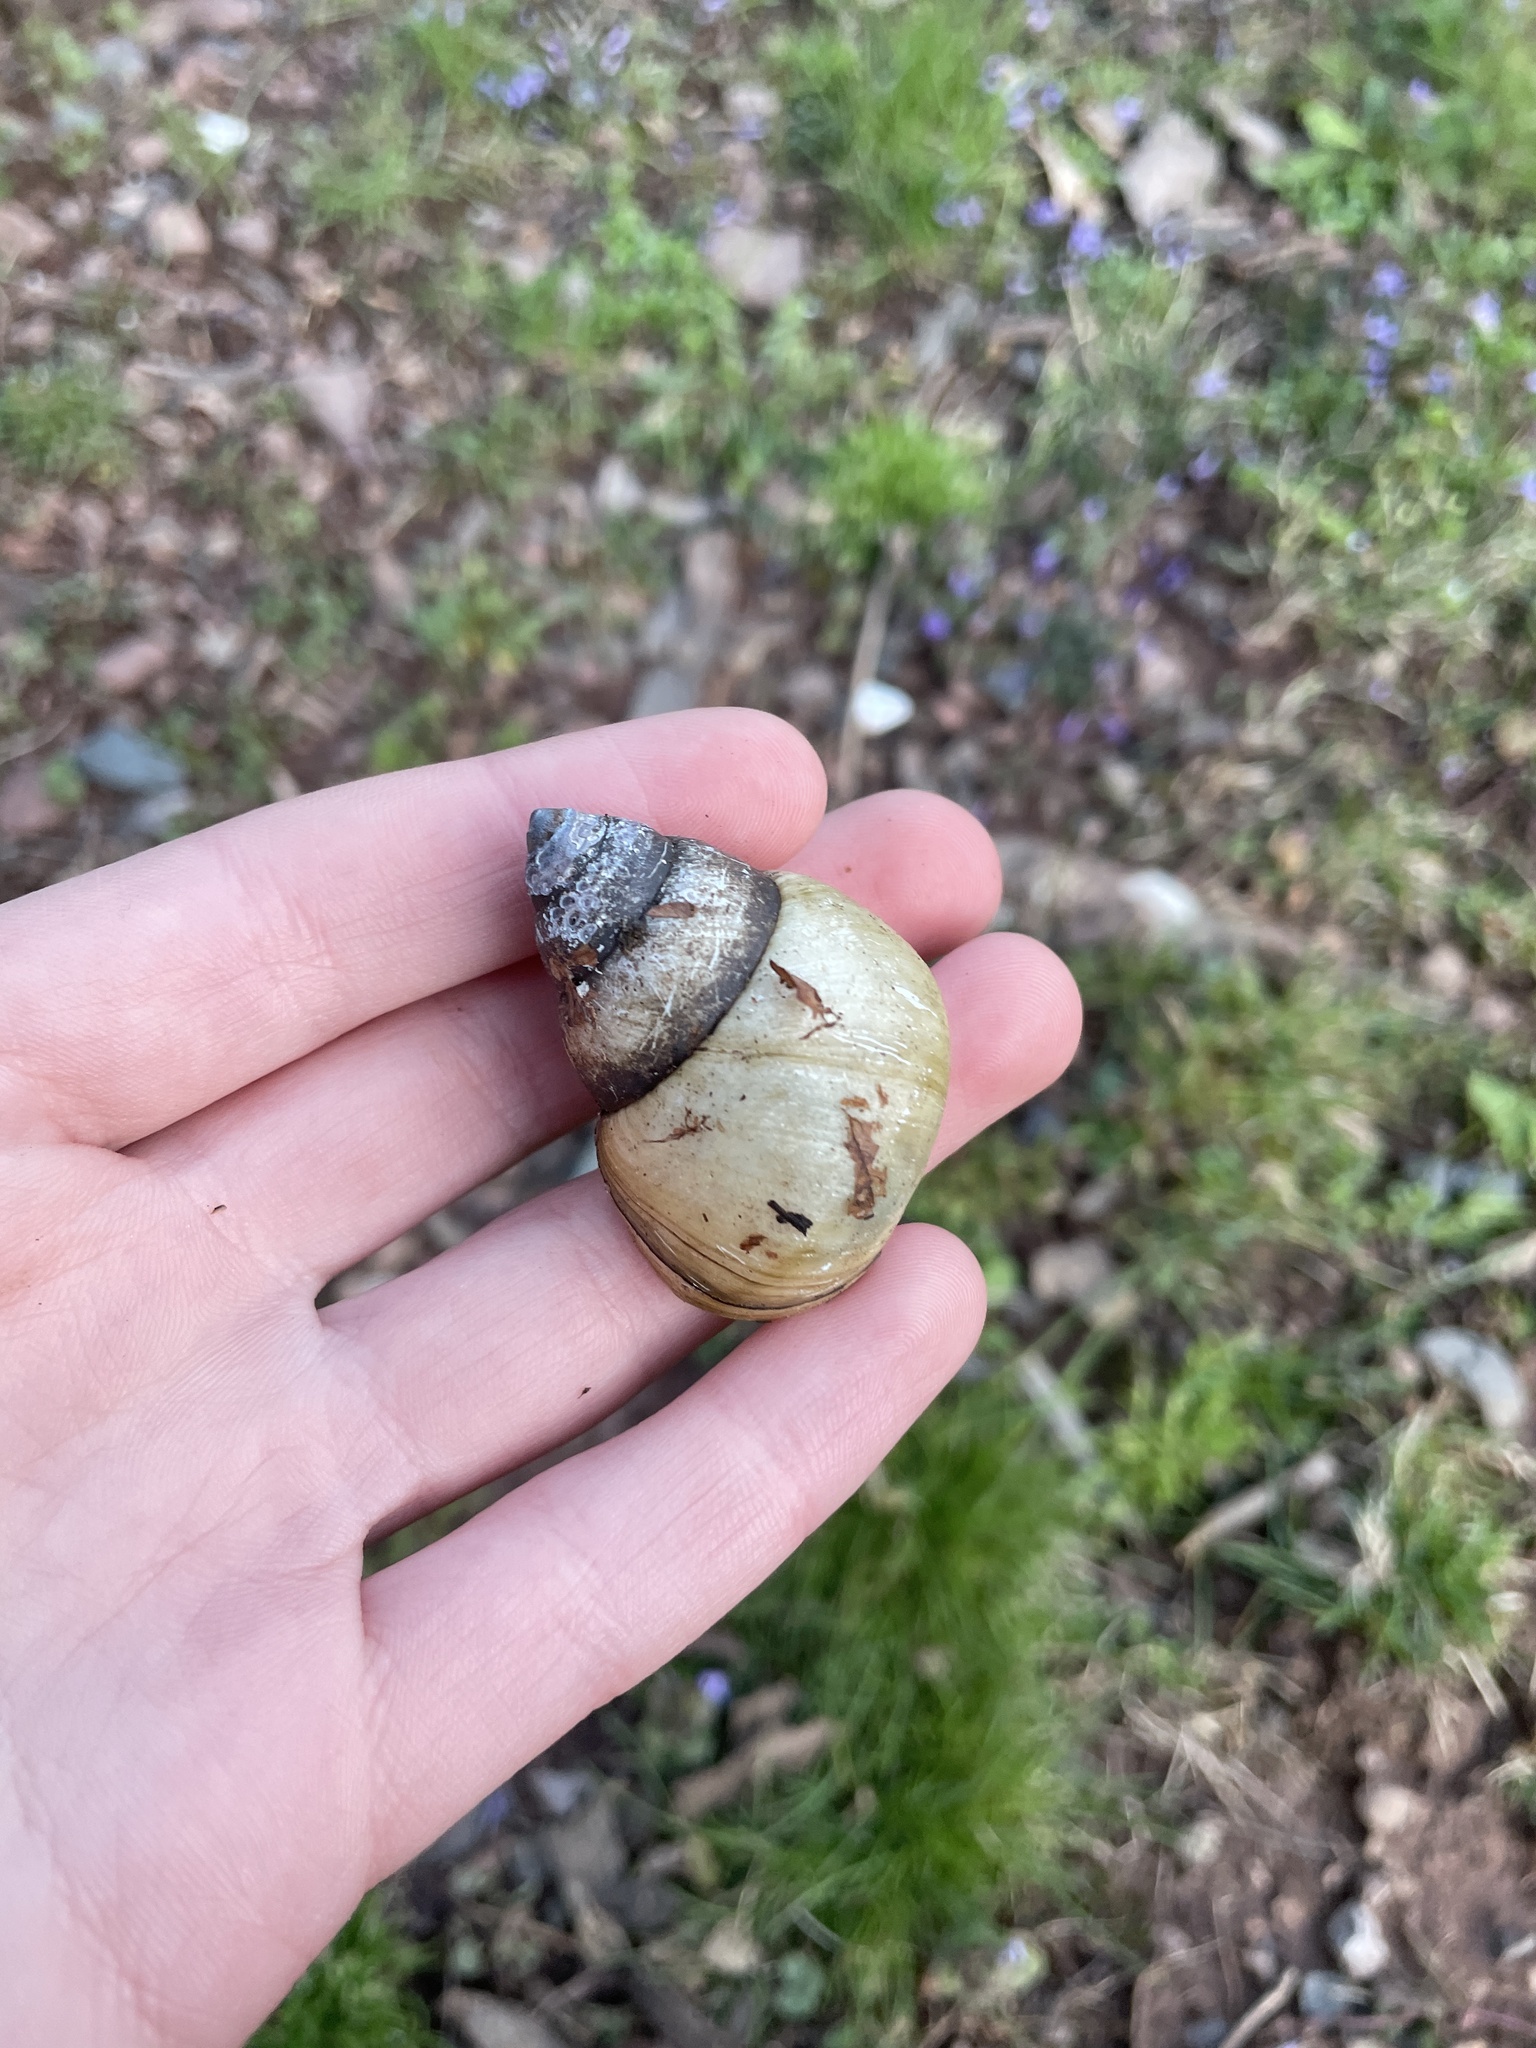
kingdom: Animalia
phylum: Mollusca
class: Gastropoda
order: Architaenioglossa
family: Viviparidae
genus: Cipangopaludina
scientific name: Cipangopaludina chinensis
